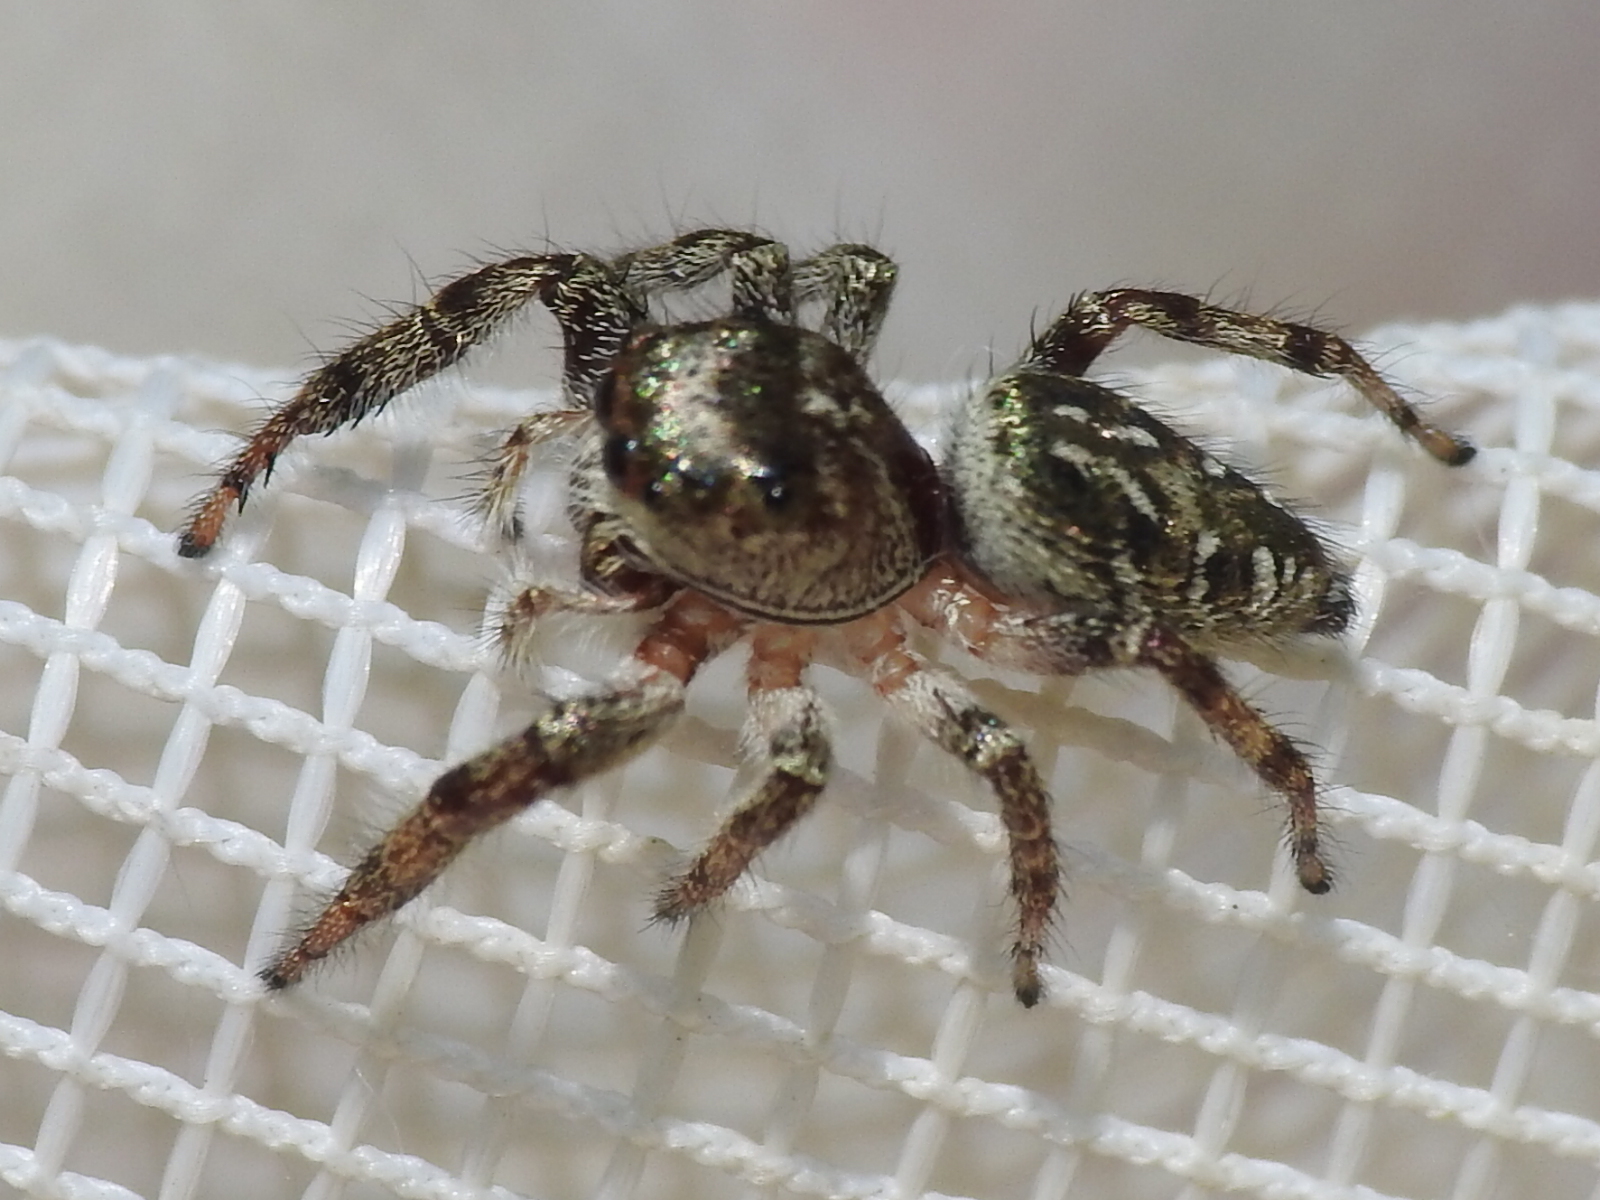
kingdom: Animalia
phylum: Arthropoda
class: Arachnida
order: Araneae
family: Salticidae
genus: Eris
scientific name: Eris militaris
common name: Bronze jumper
